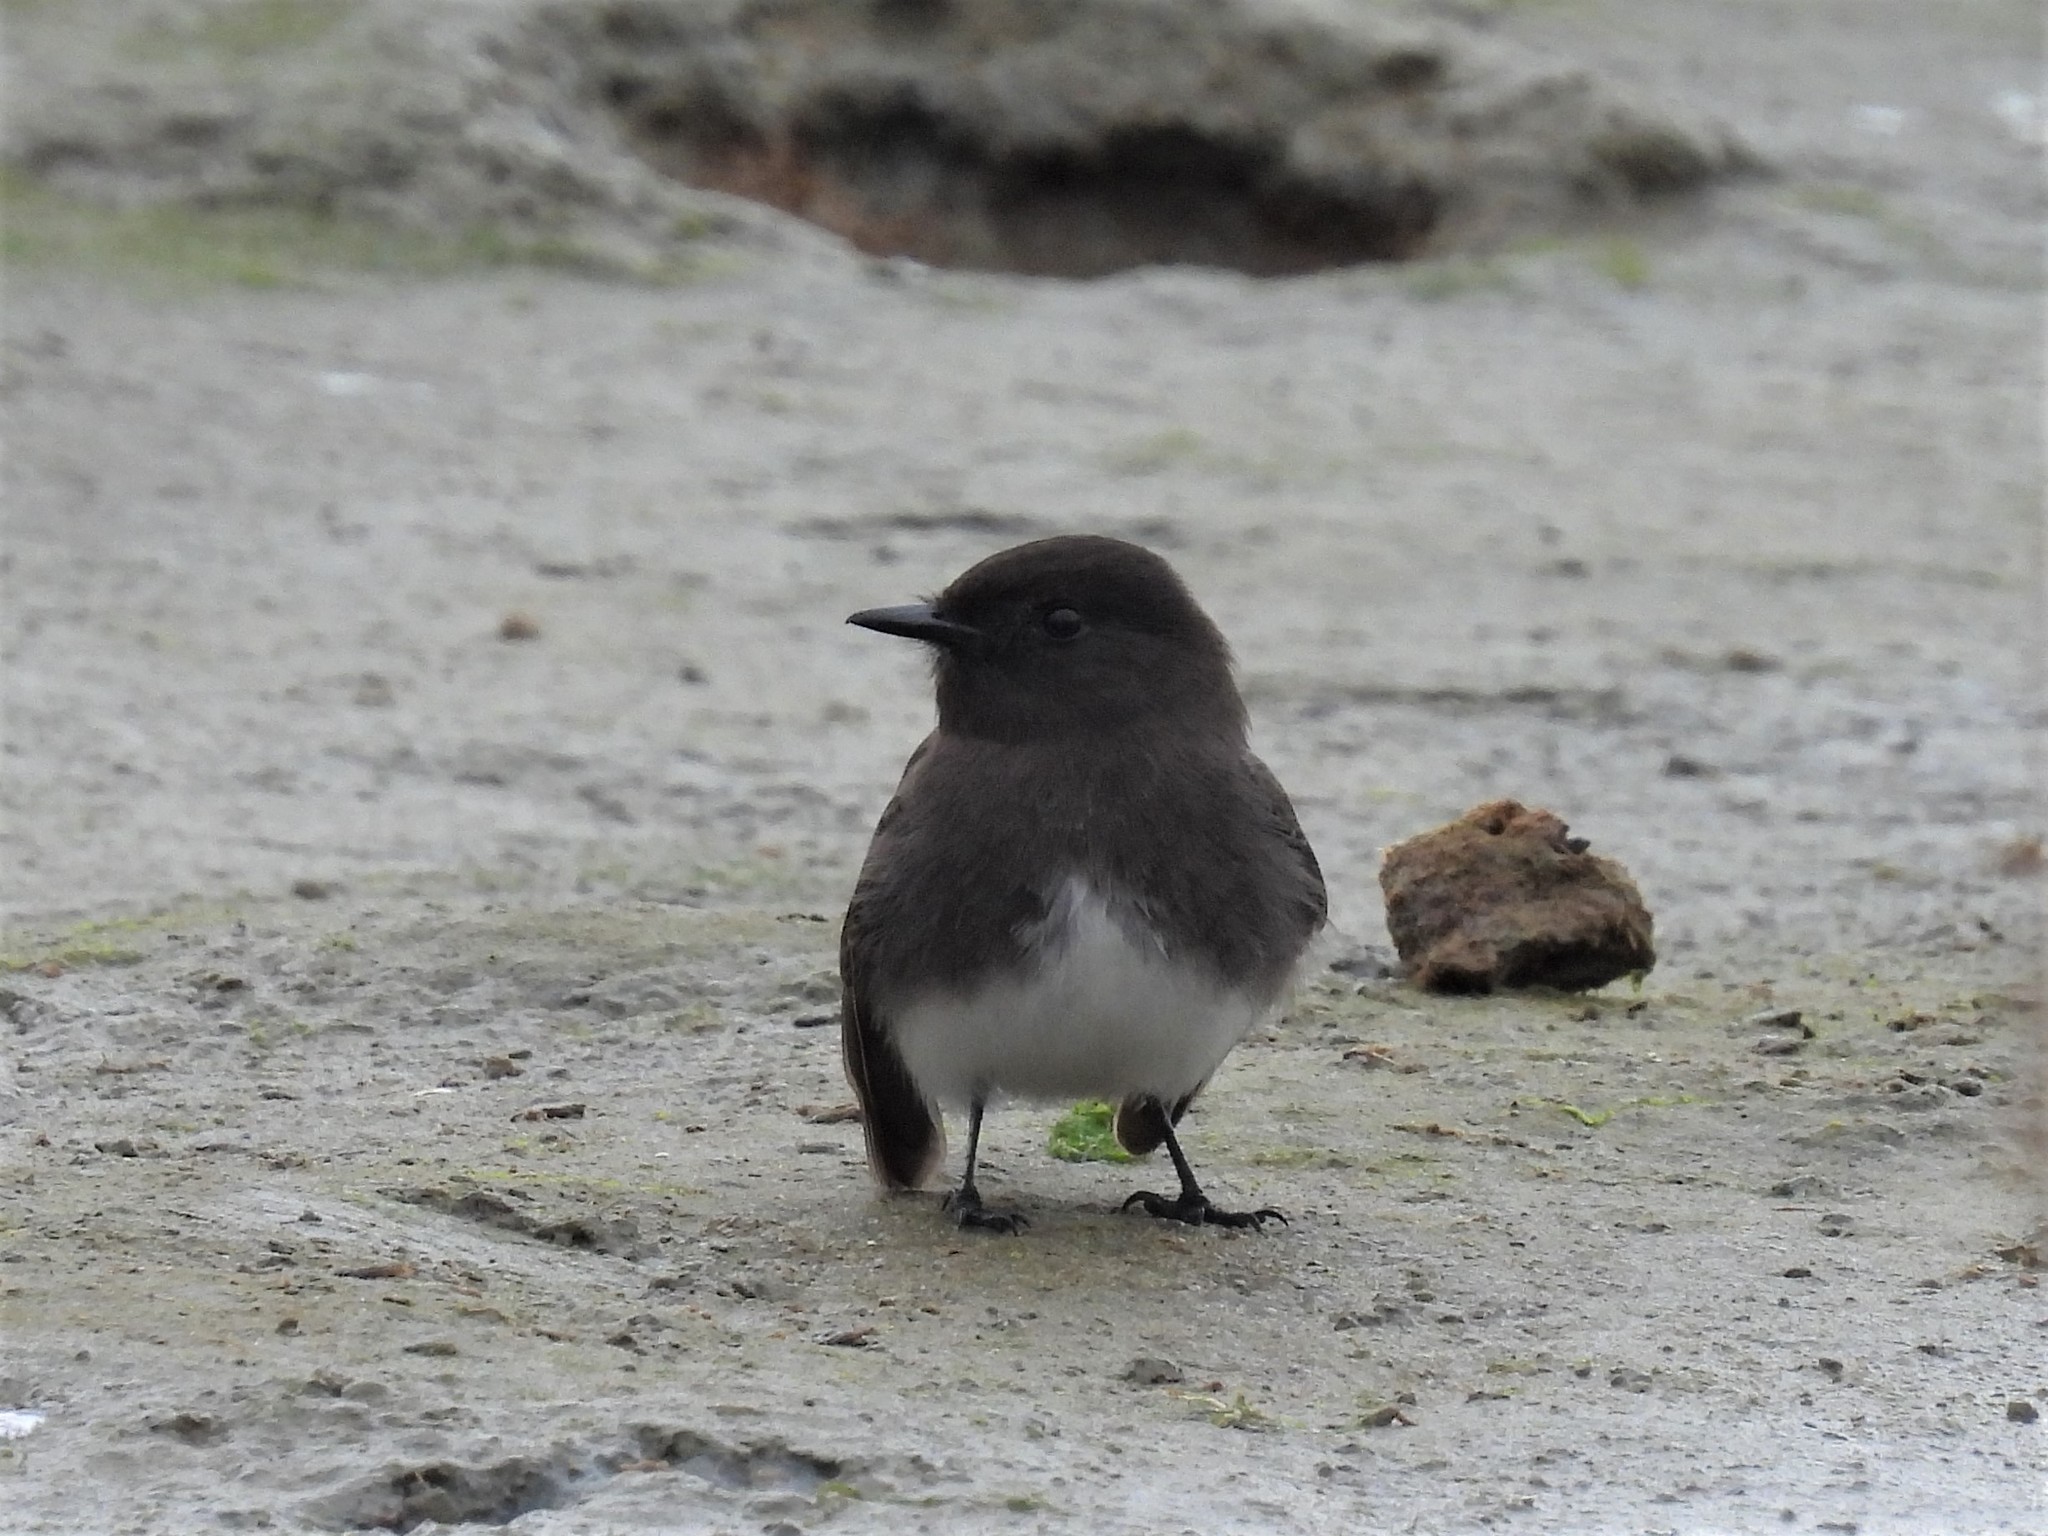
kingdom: Animalia
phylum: Chordata
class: Aves
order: Passeriformes
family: Tyrannidae
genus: Sayornis
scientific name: Sayornis nigricans
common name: Black phoebe
